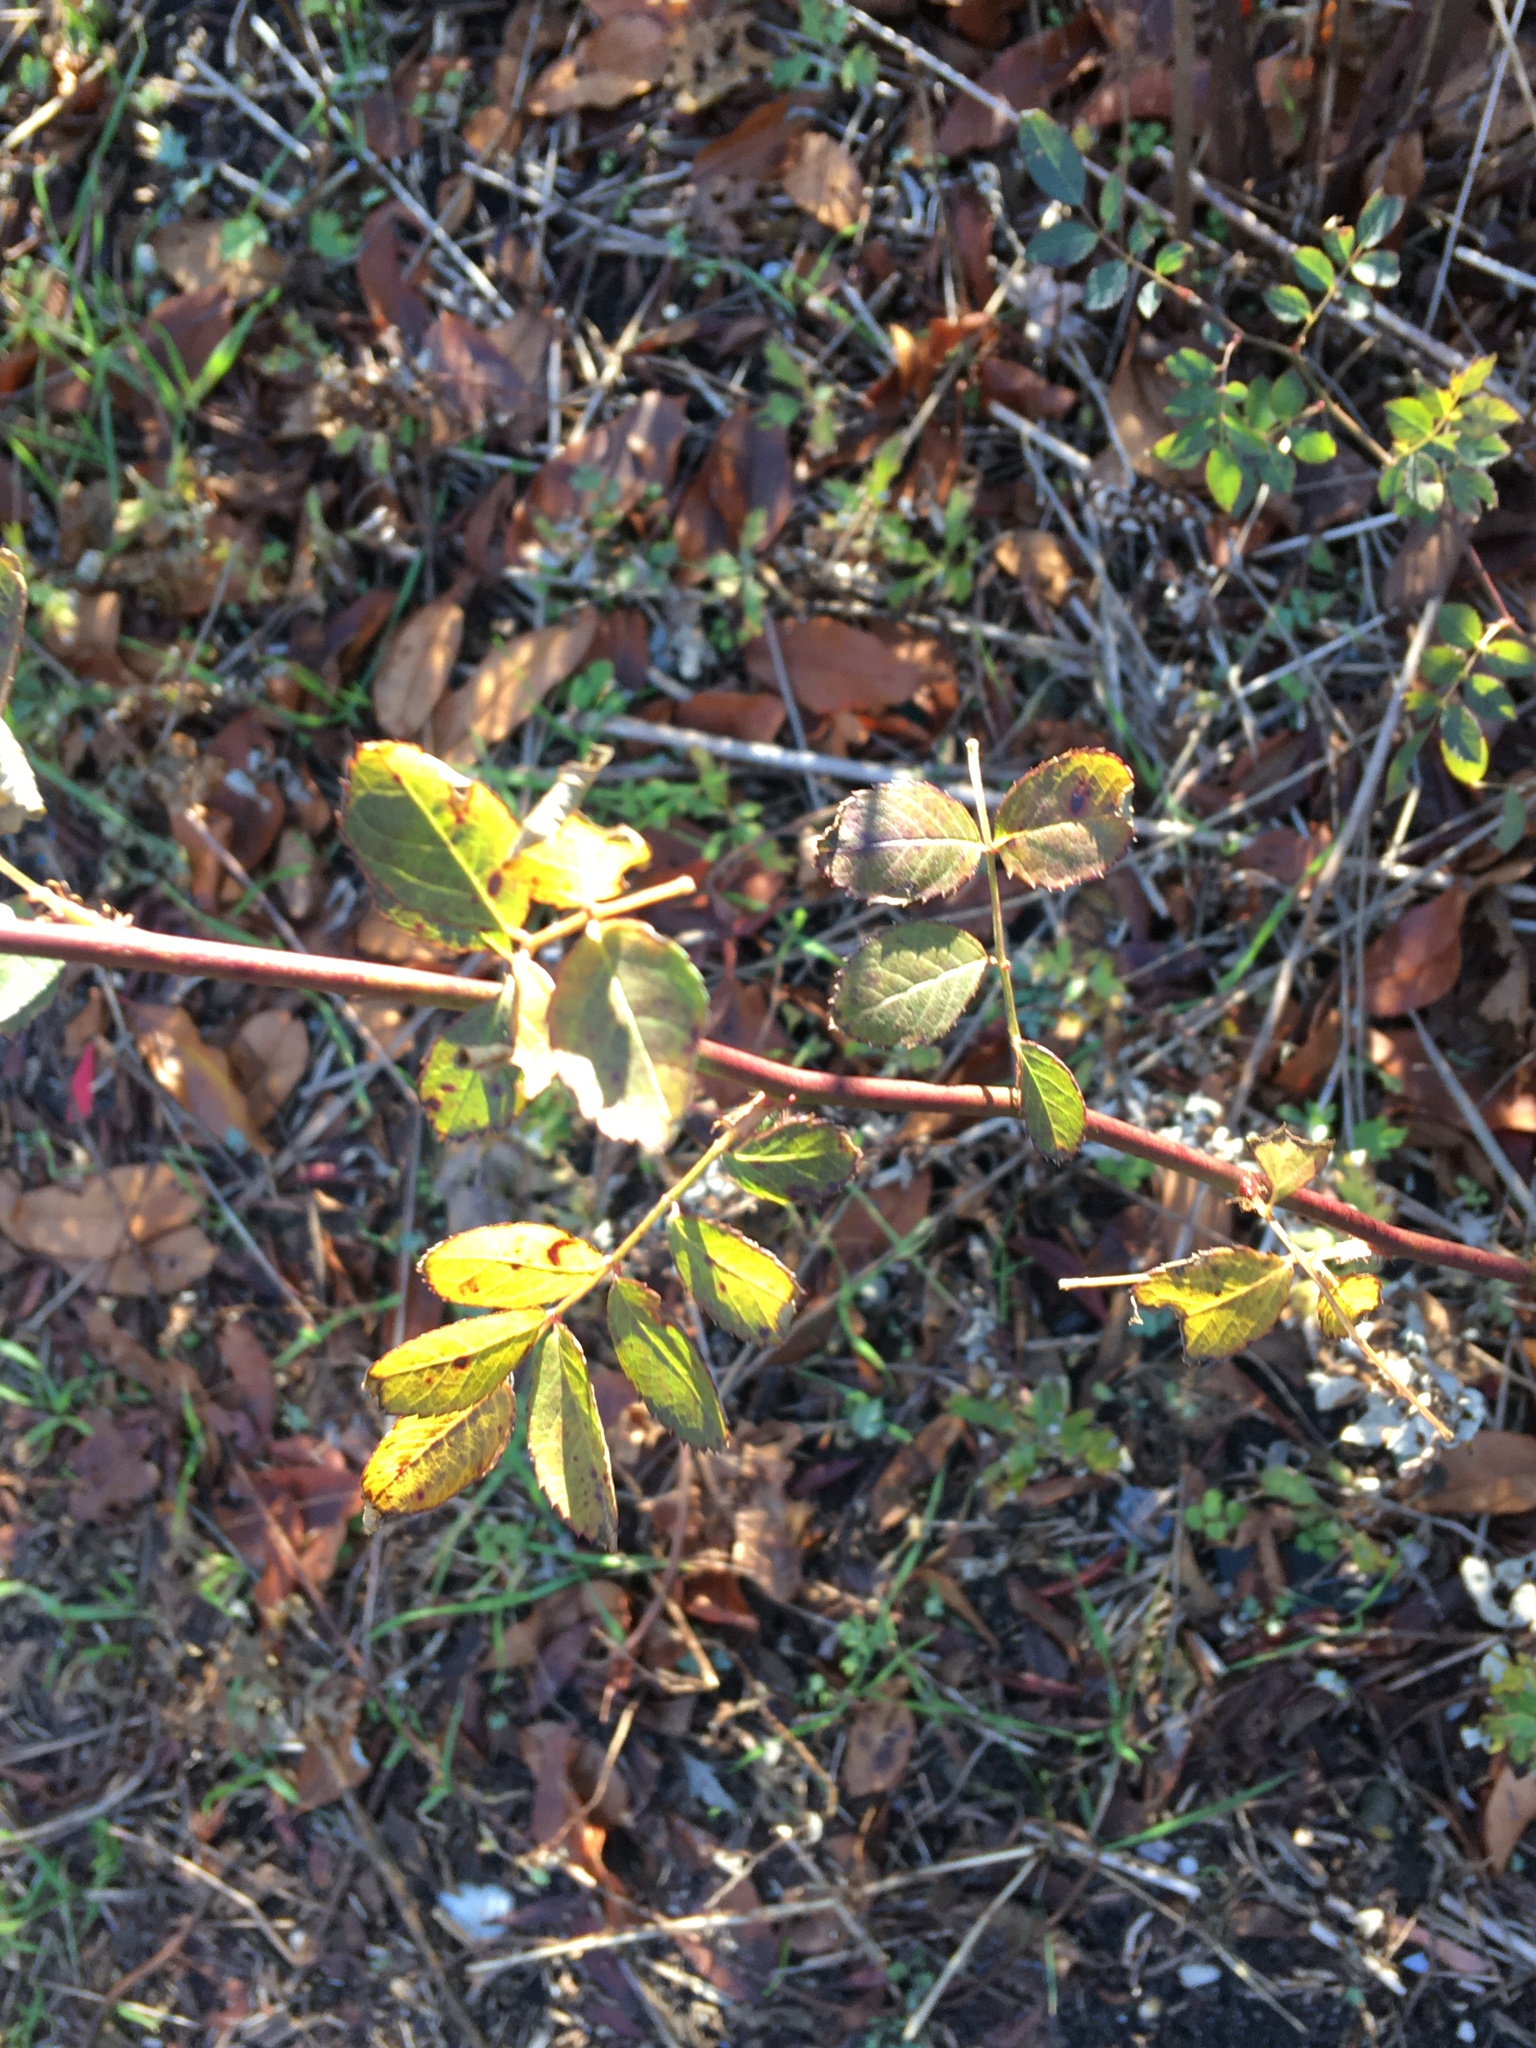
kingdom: Plantae
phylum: Tracheophyta
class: Magnoliopsida
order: Rosales
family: Rosaceae
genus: Rosa
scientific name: Rosa multiflora
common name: Multiflora rose
